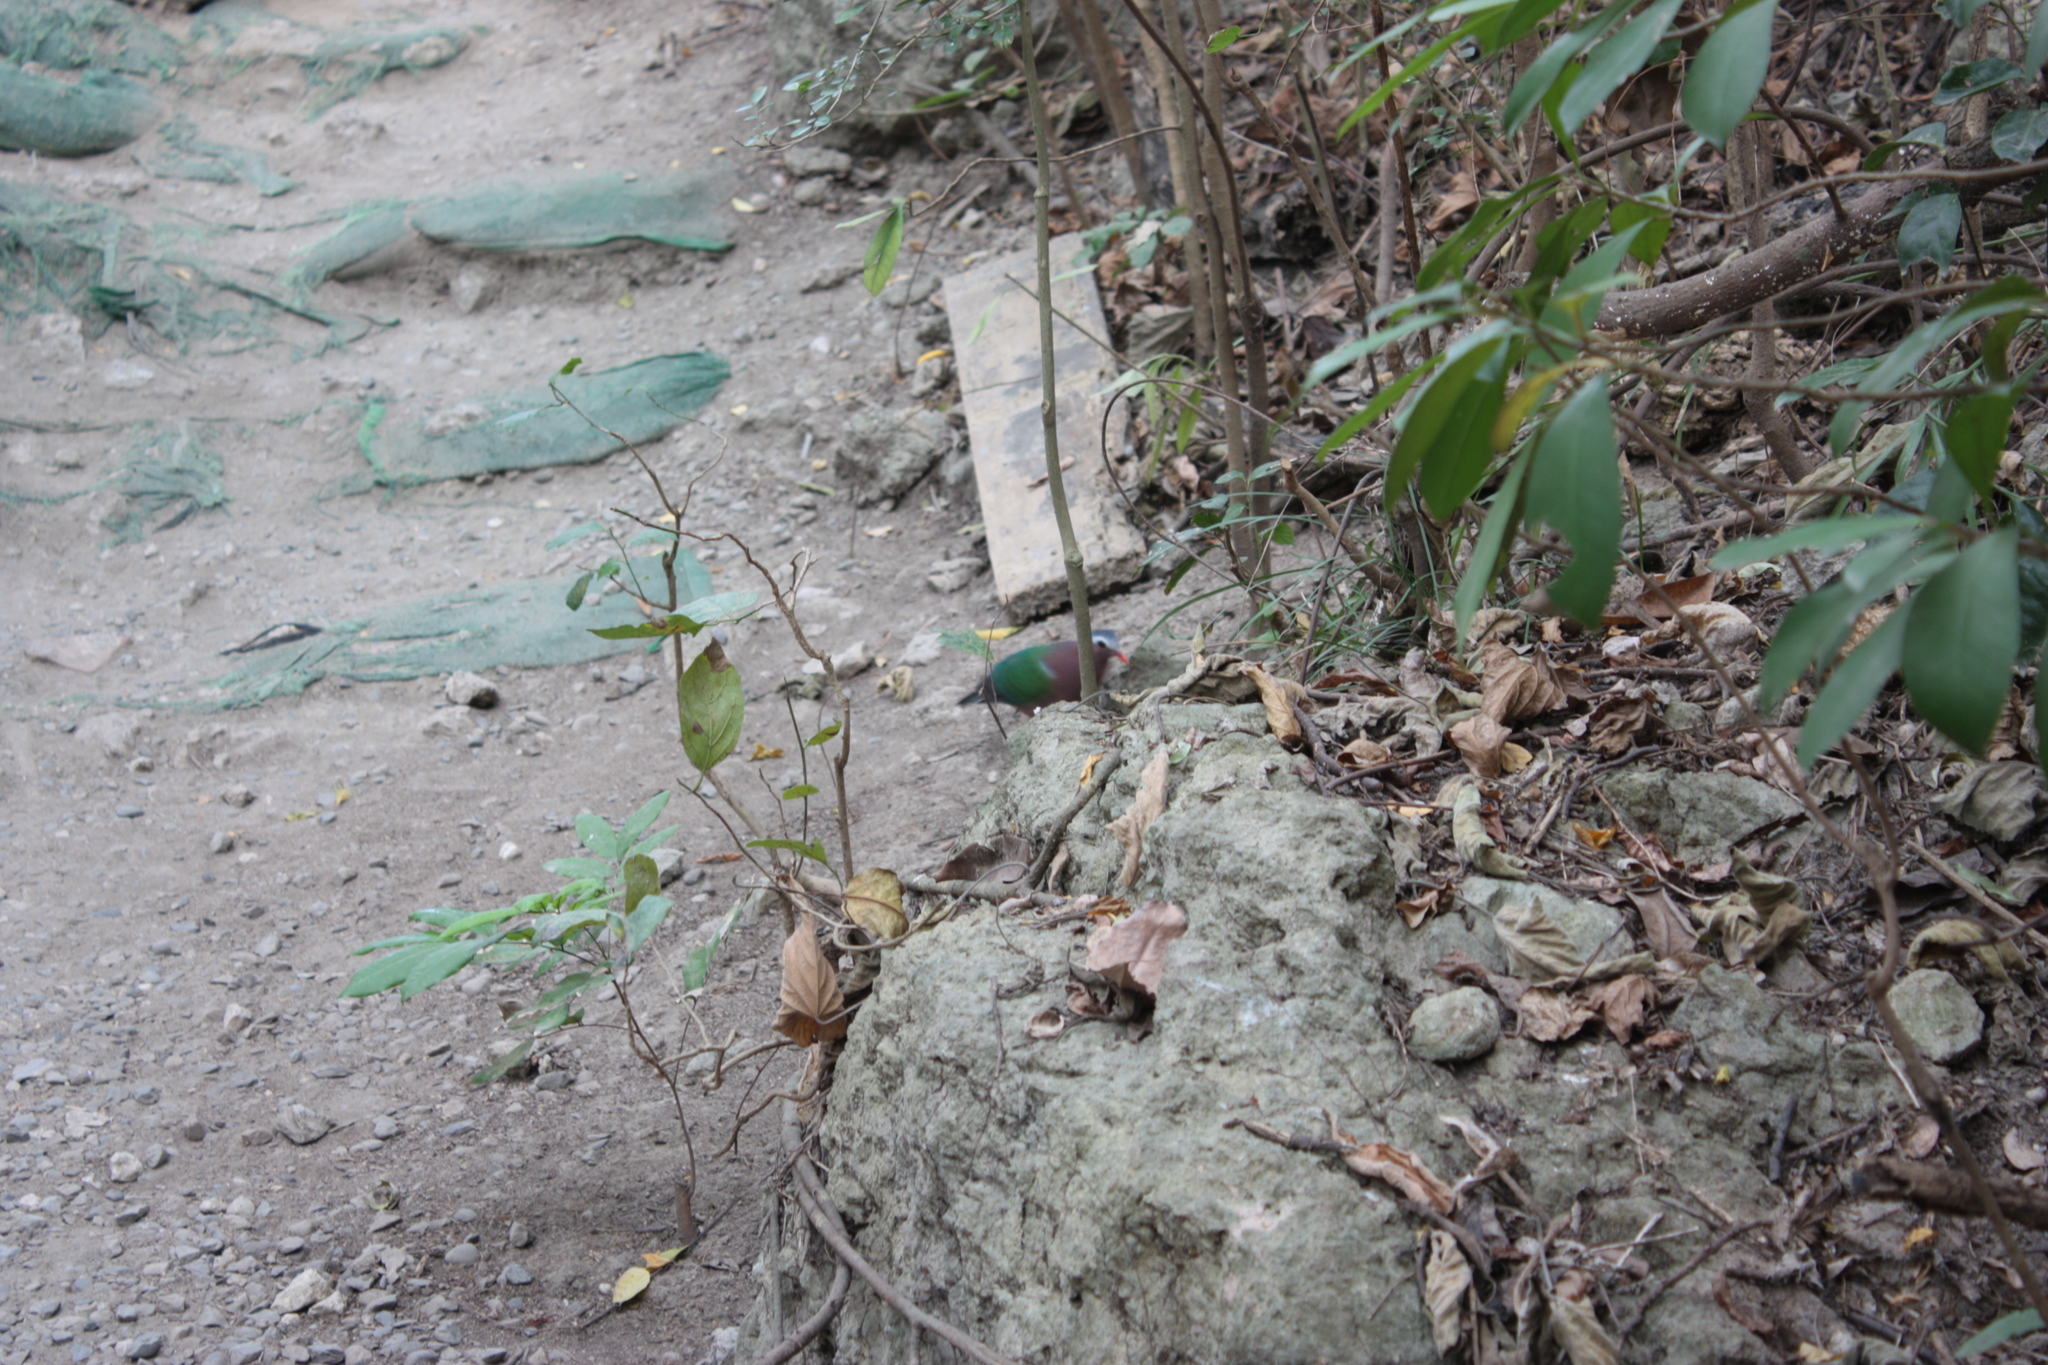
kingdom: Animalia
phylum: Chordata
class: Aves
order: Columbiformes
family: Columbidae
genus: Chalcophaps
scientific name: Chalcophaps indica
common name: Common emerald dove
